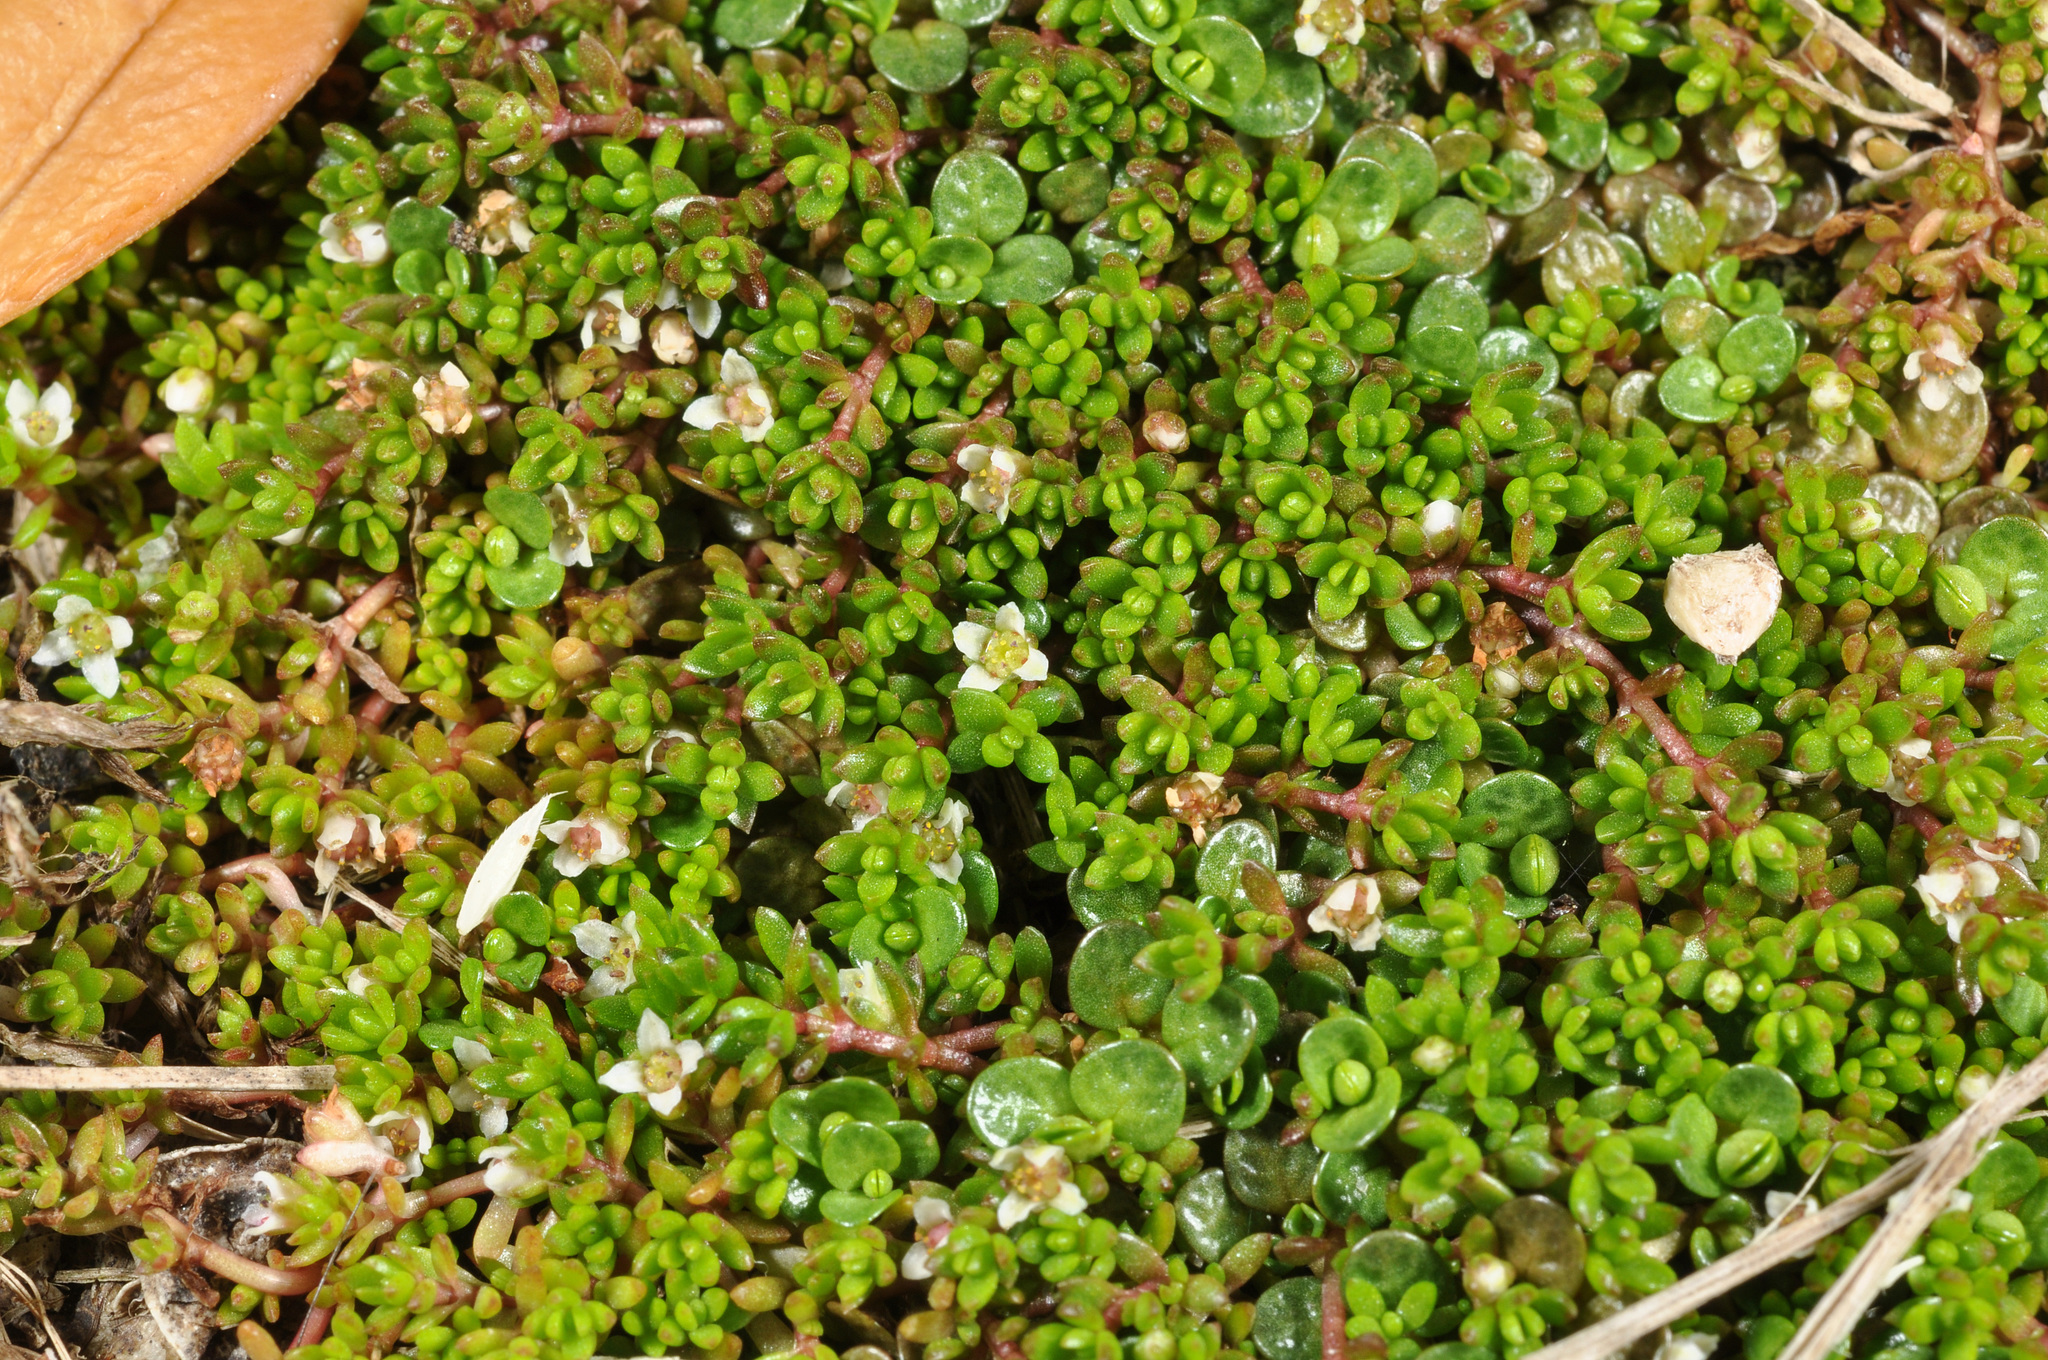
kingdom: Plantae
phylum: Tracheophyta
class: Magnoliopsida
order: Saxifragales
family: Crassulaceae
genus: Crassula
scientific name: Crassula moschata
